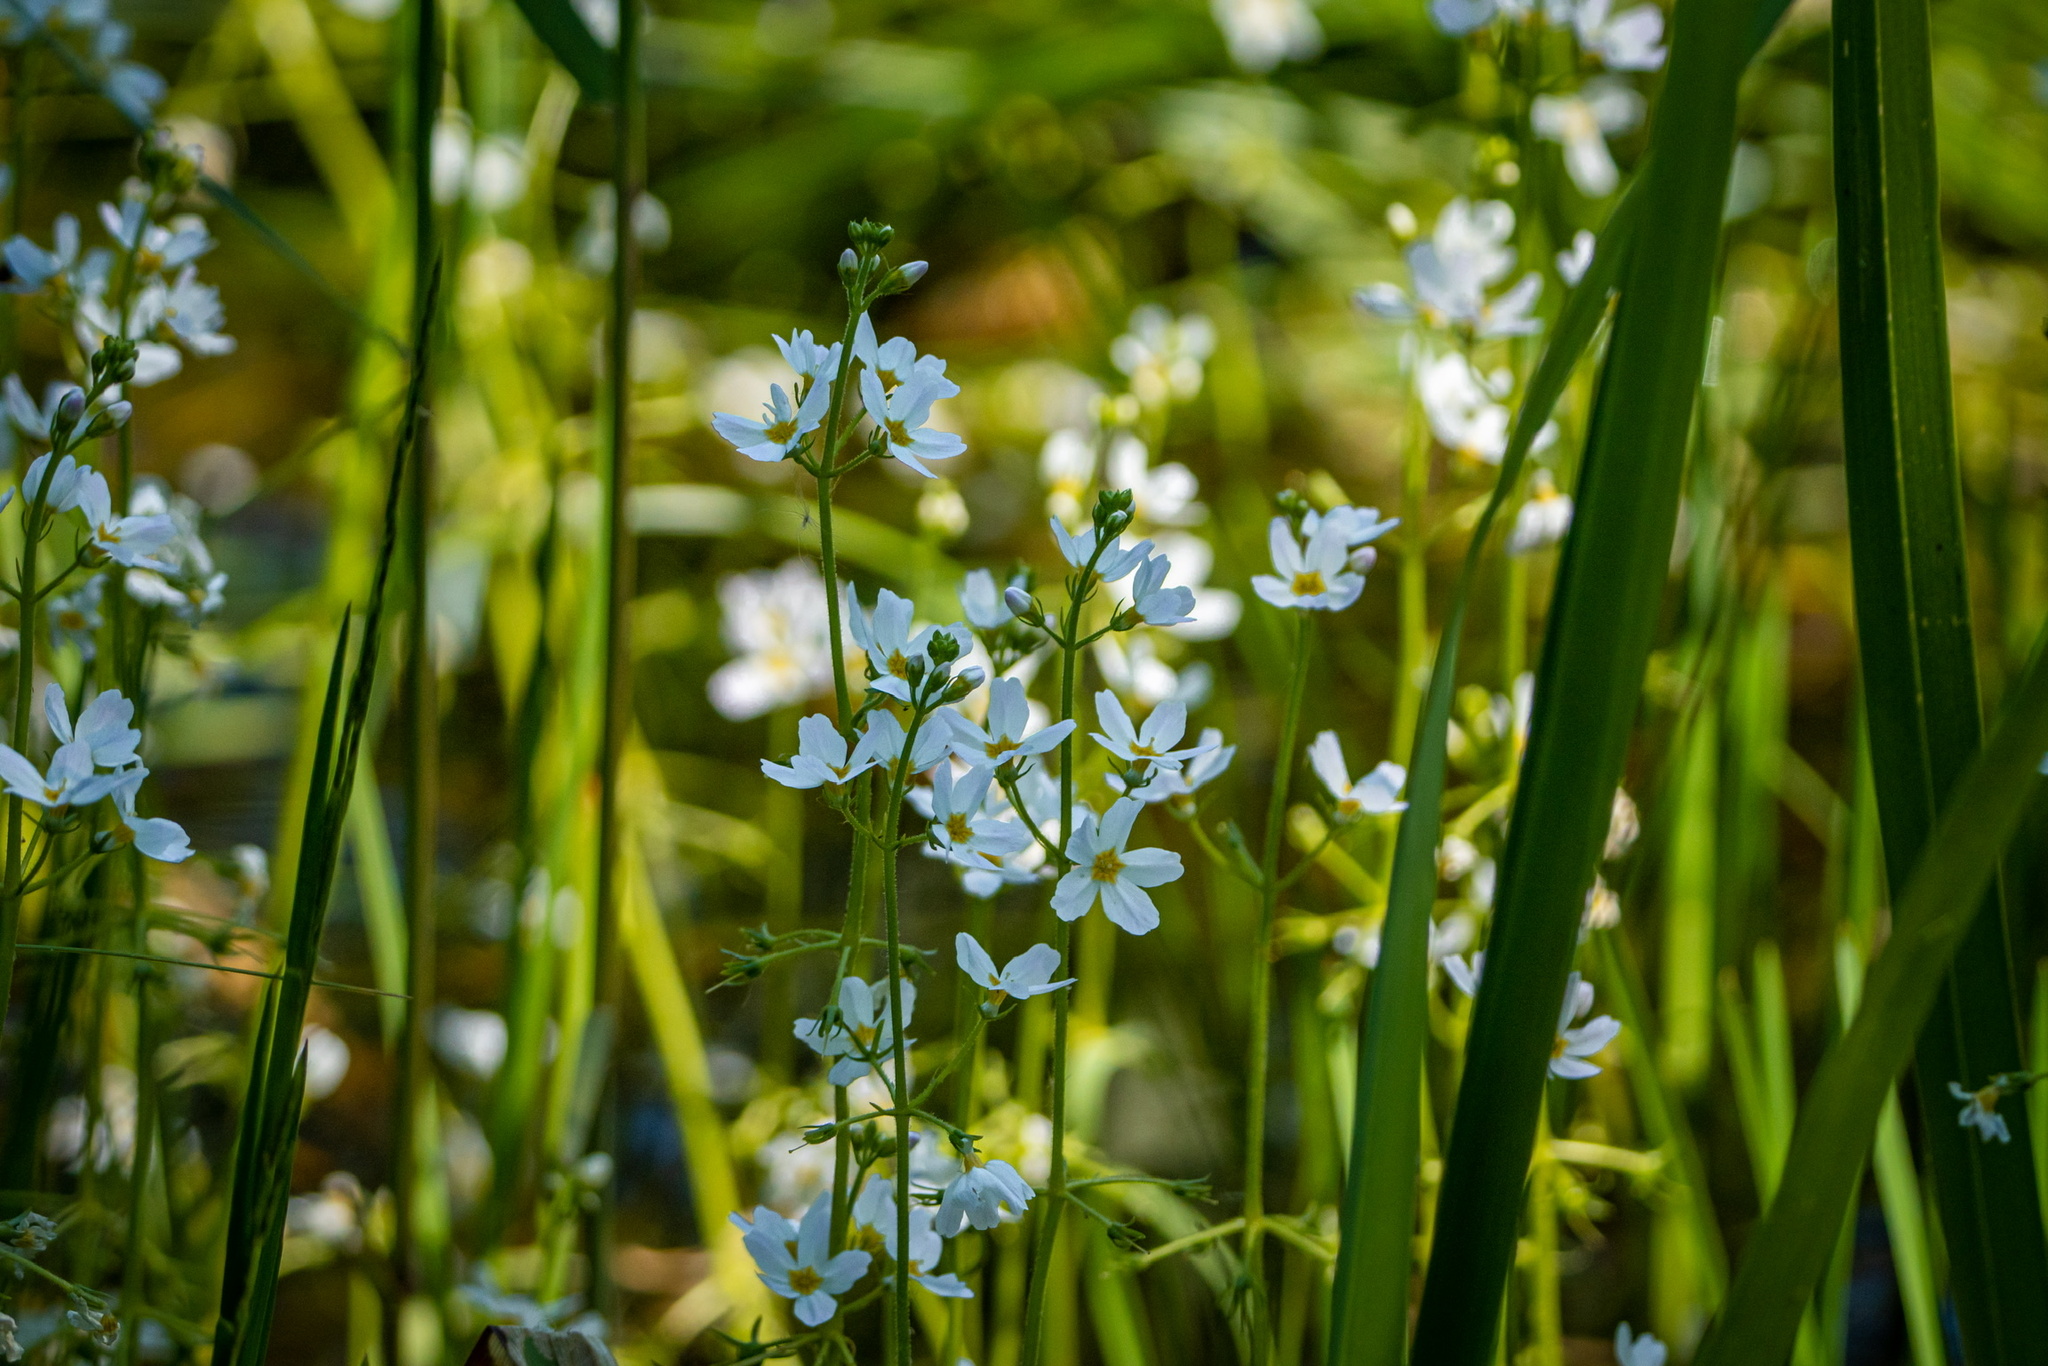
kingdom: Plantae
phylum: Tracheophyta
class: Magnoliopsida
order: Ericales
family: Primulaceae
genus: Hottonia
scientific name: Hottonia palustris
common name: Water-violet
